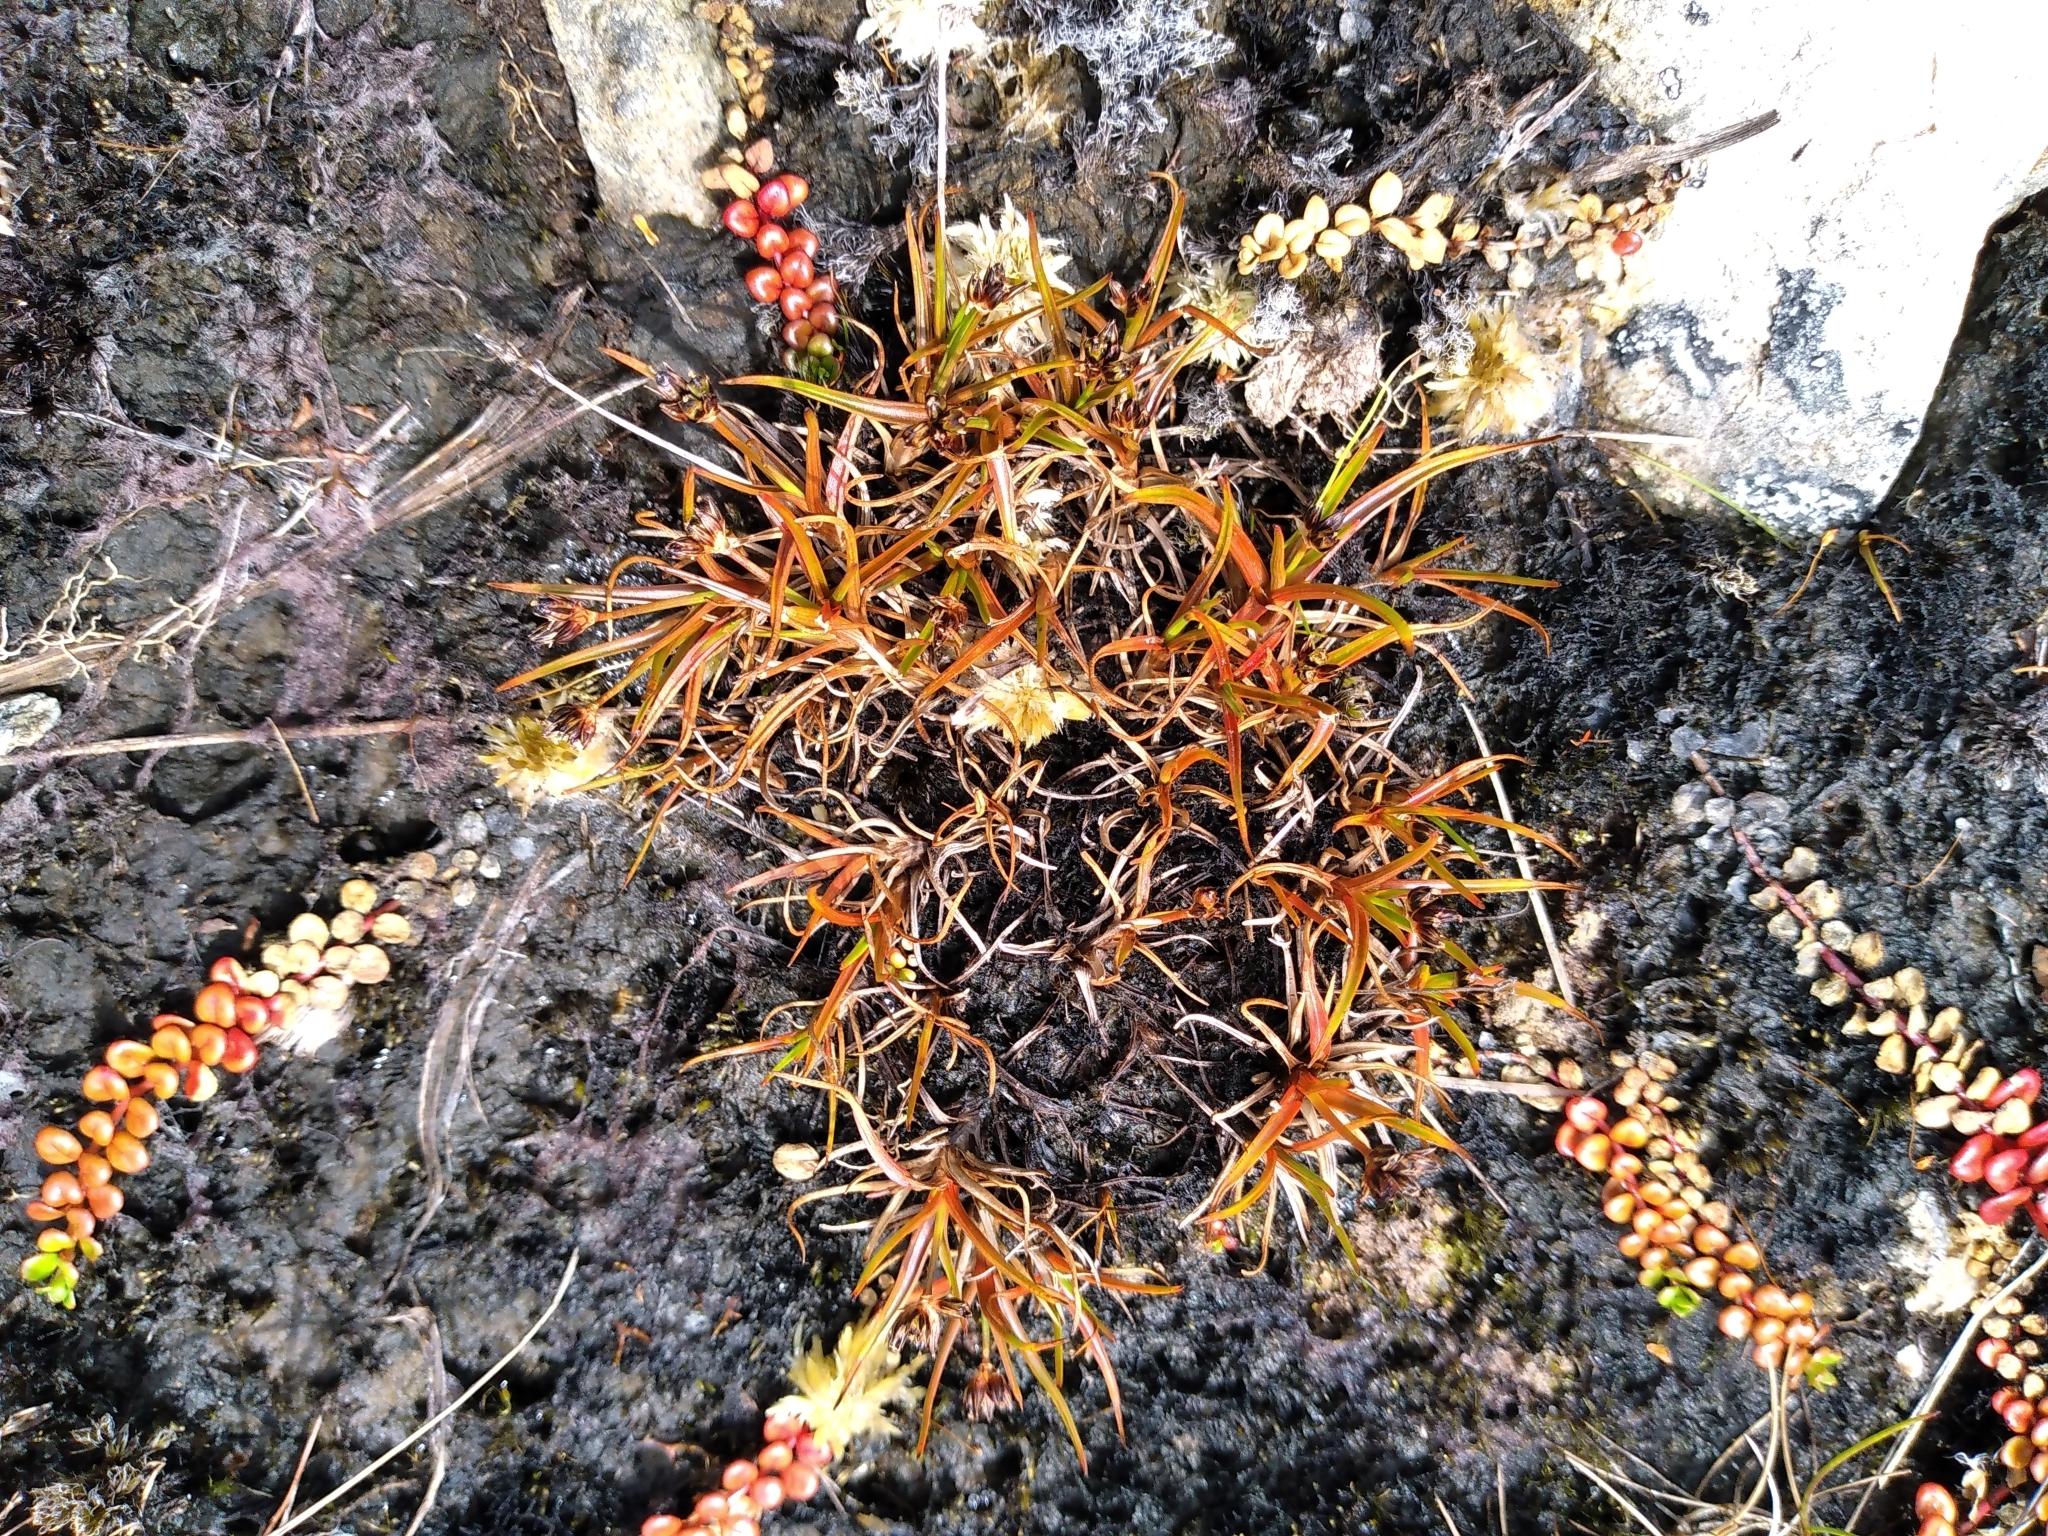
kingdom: Plantae
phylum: Tracheophyta
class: Liliopsida
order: Poales
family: Juncaceae
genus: Juncus
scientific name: Juncus antarcticus
